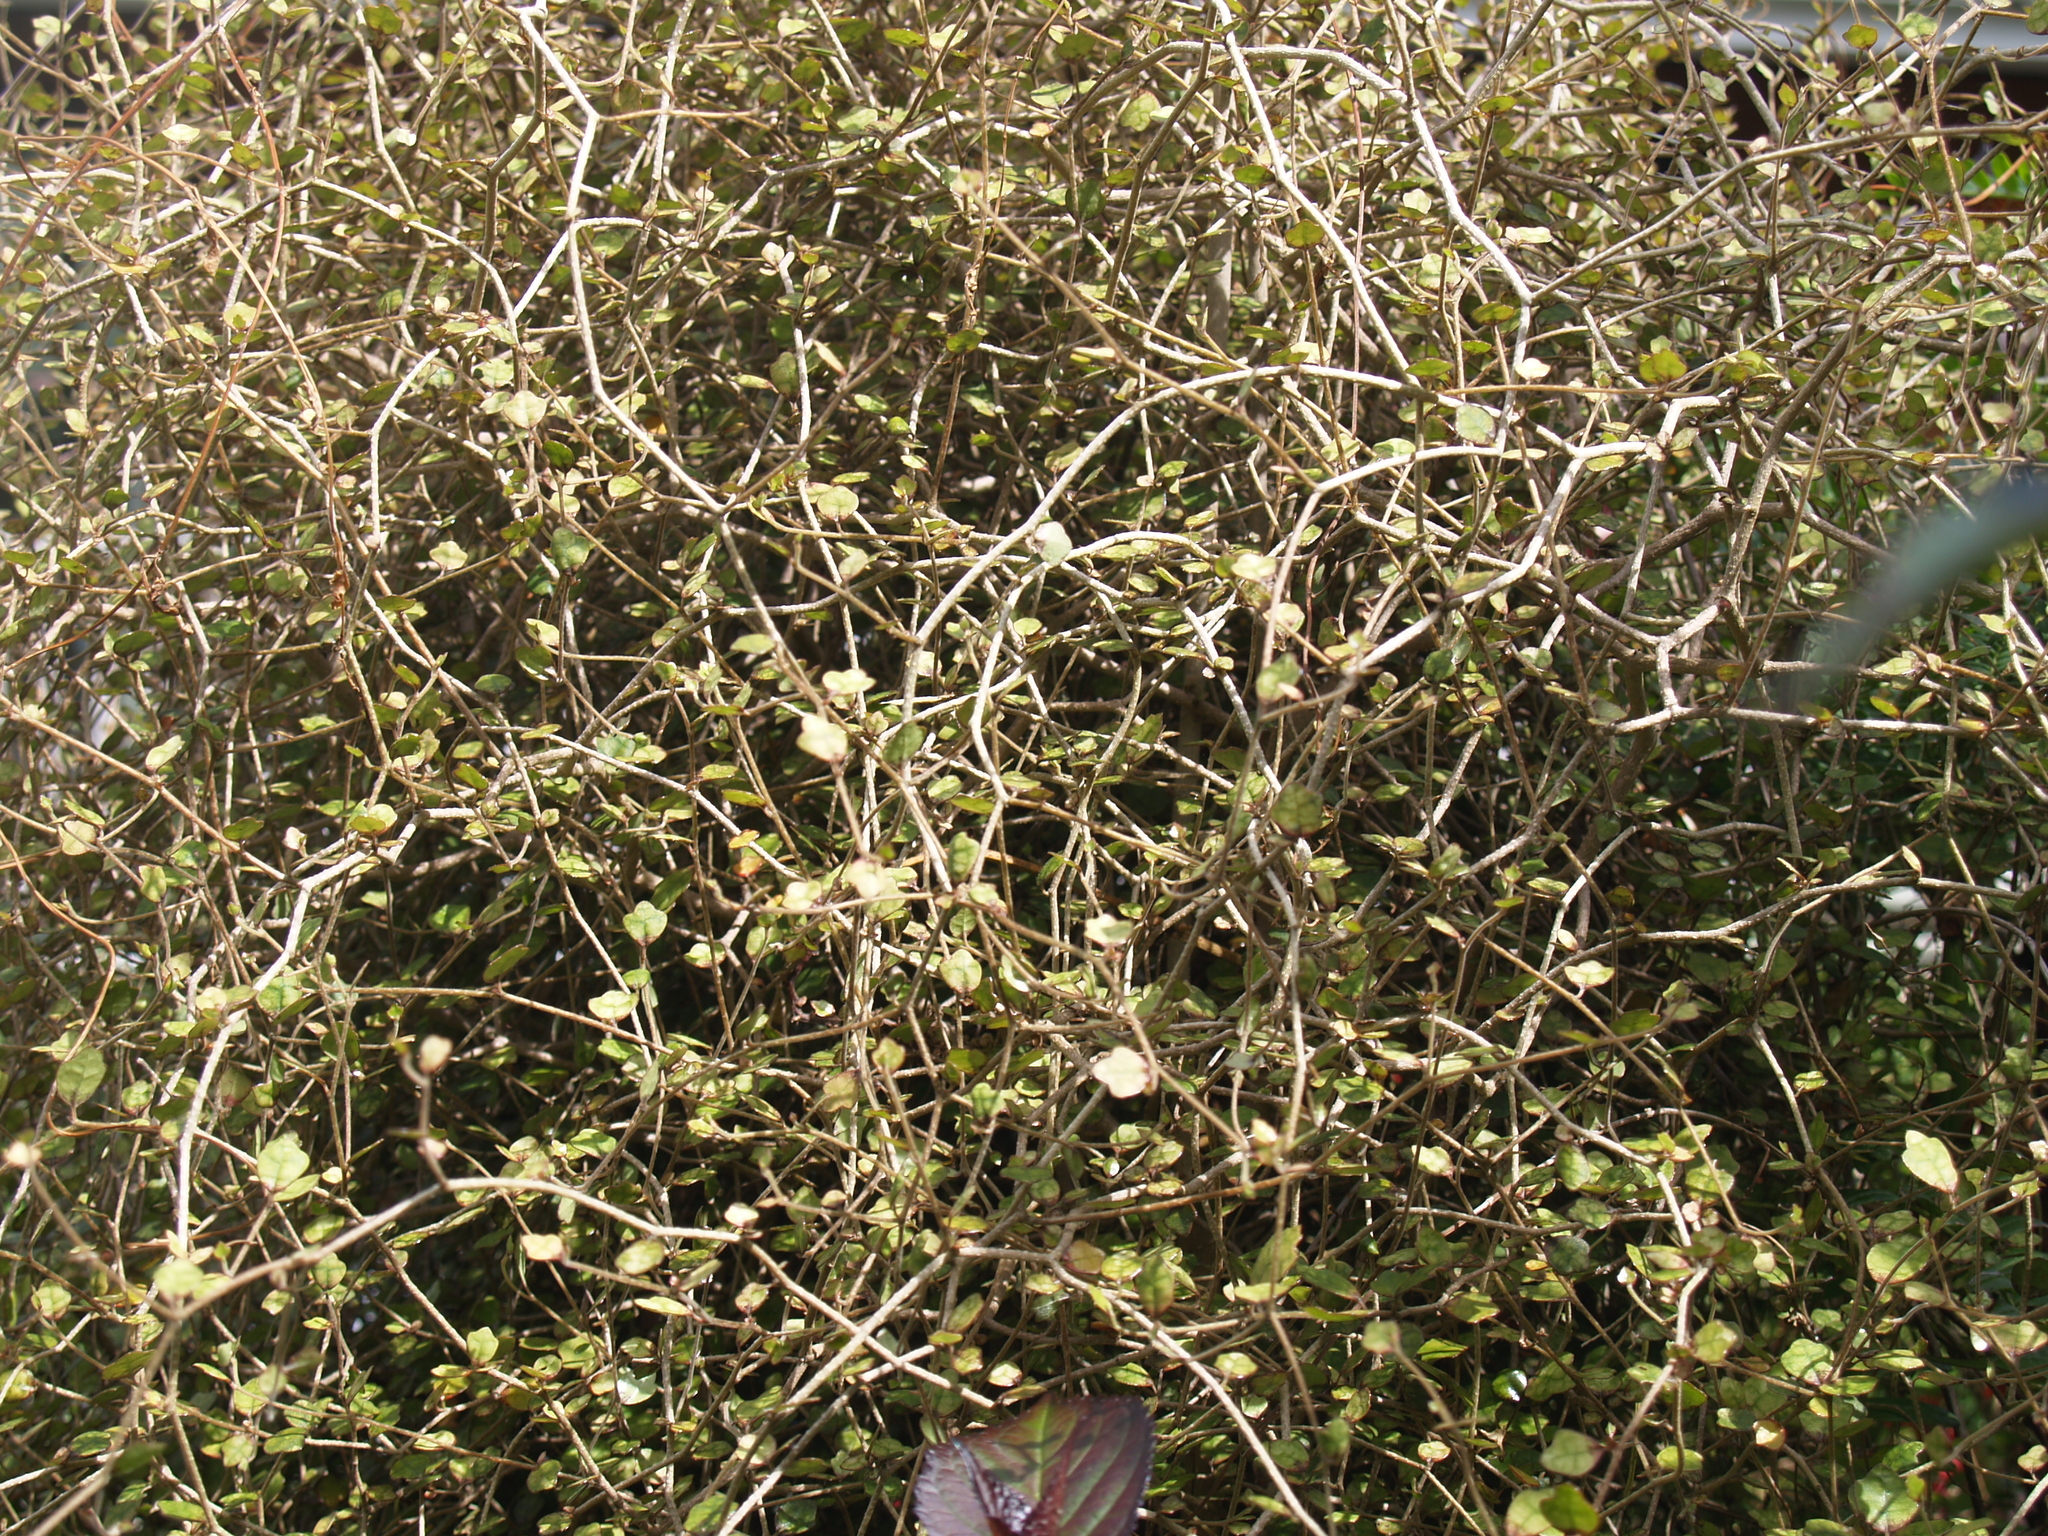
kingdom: Plantae
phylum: Tracheophyta
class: Magnoliopsida
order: Apiales
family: Pennantiaceae
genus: Pennantia
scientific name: Pennantia corymbosa
